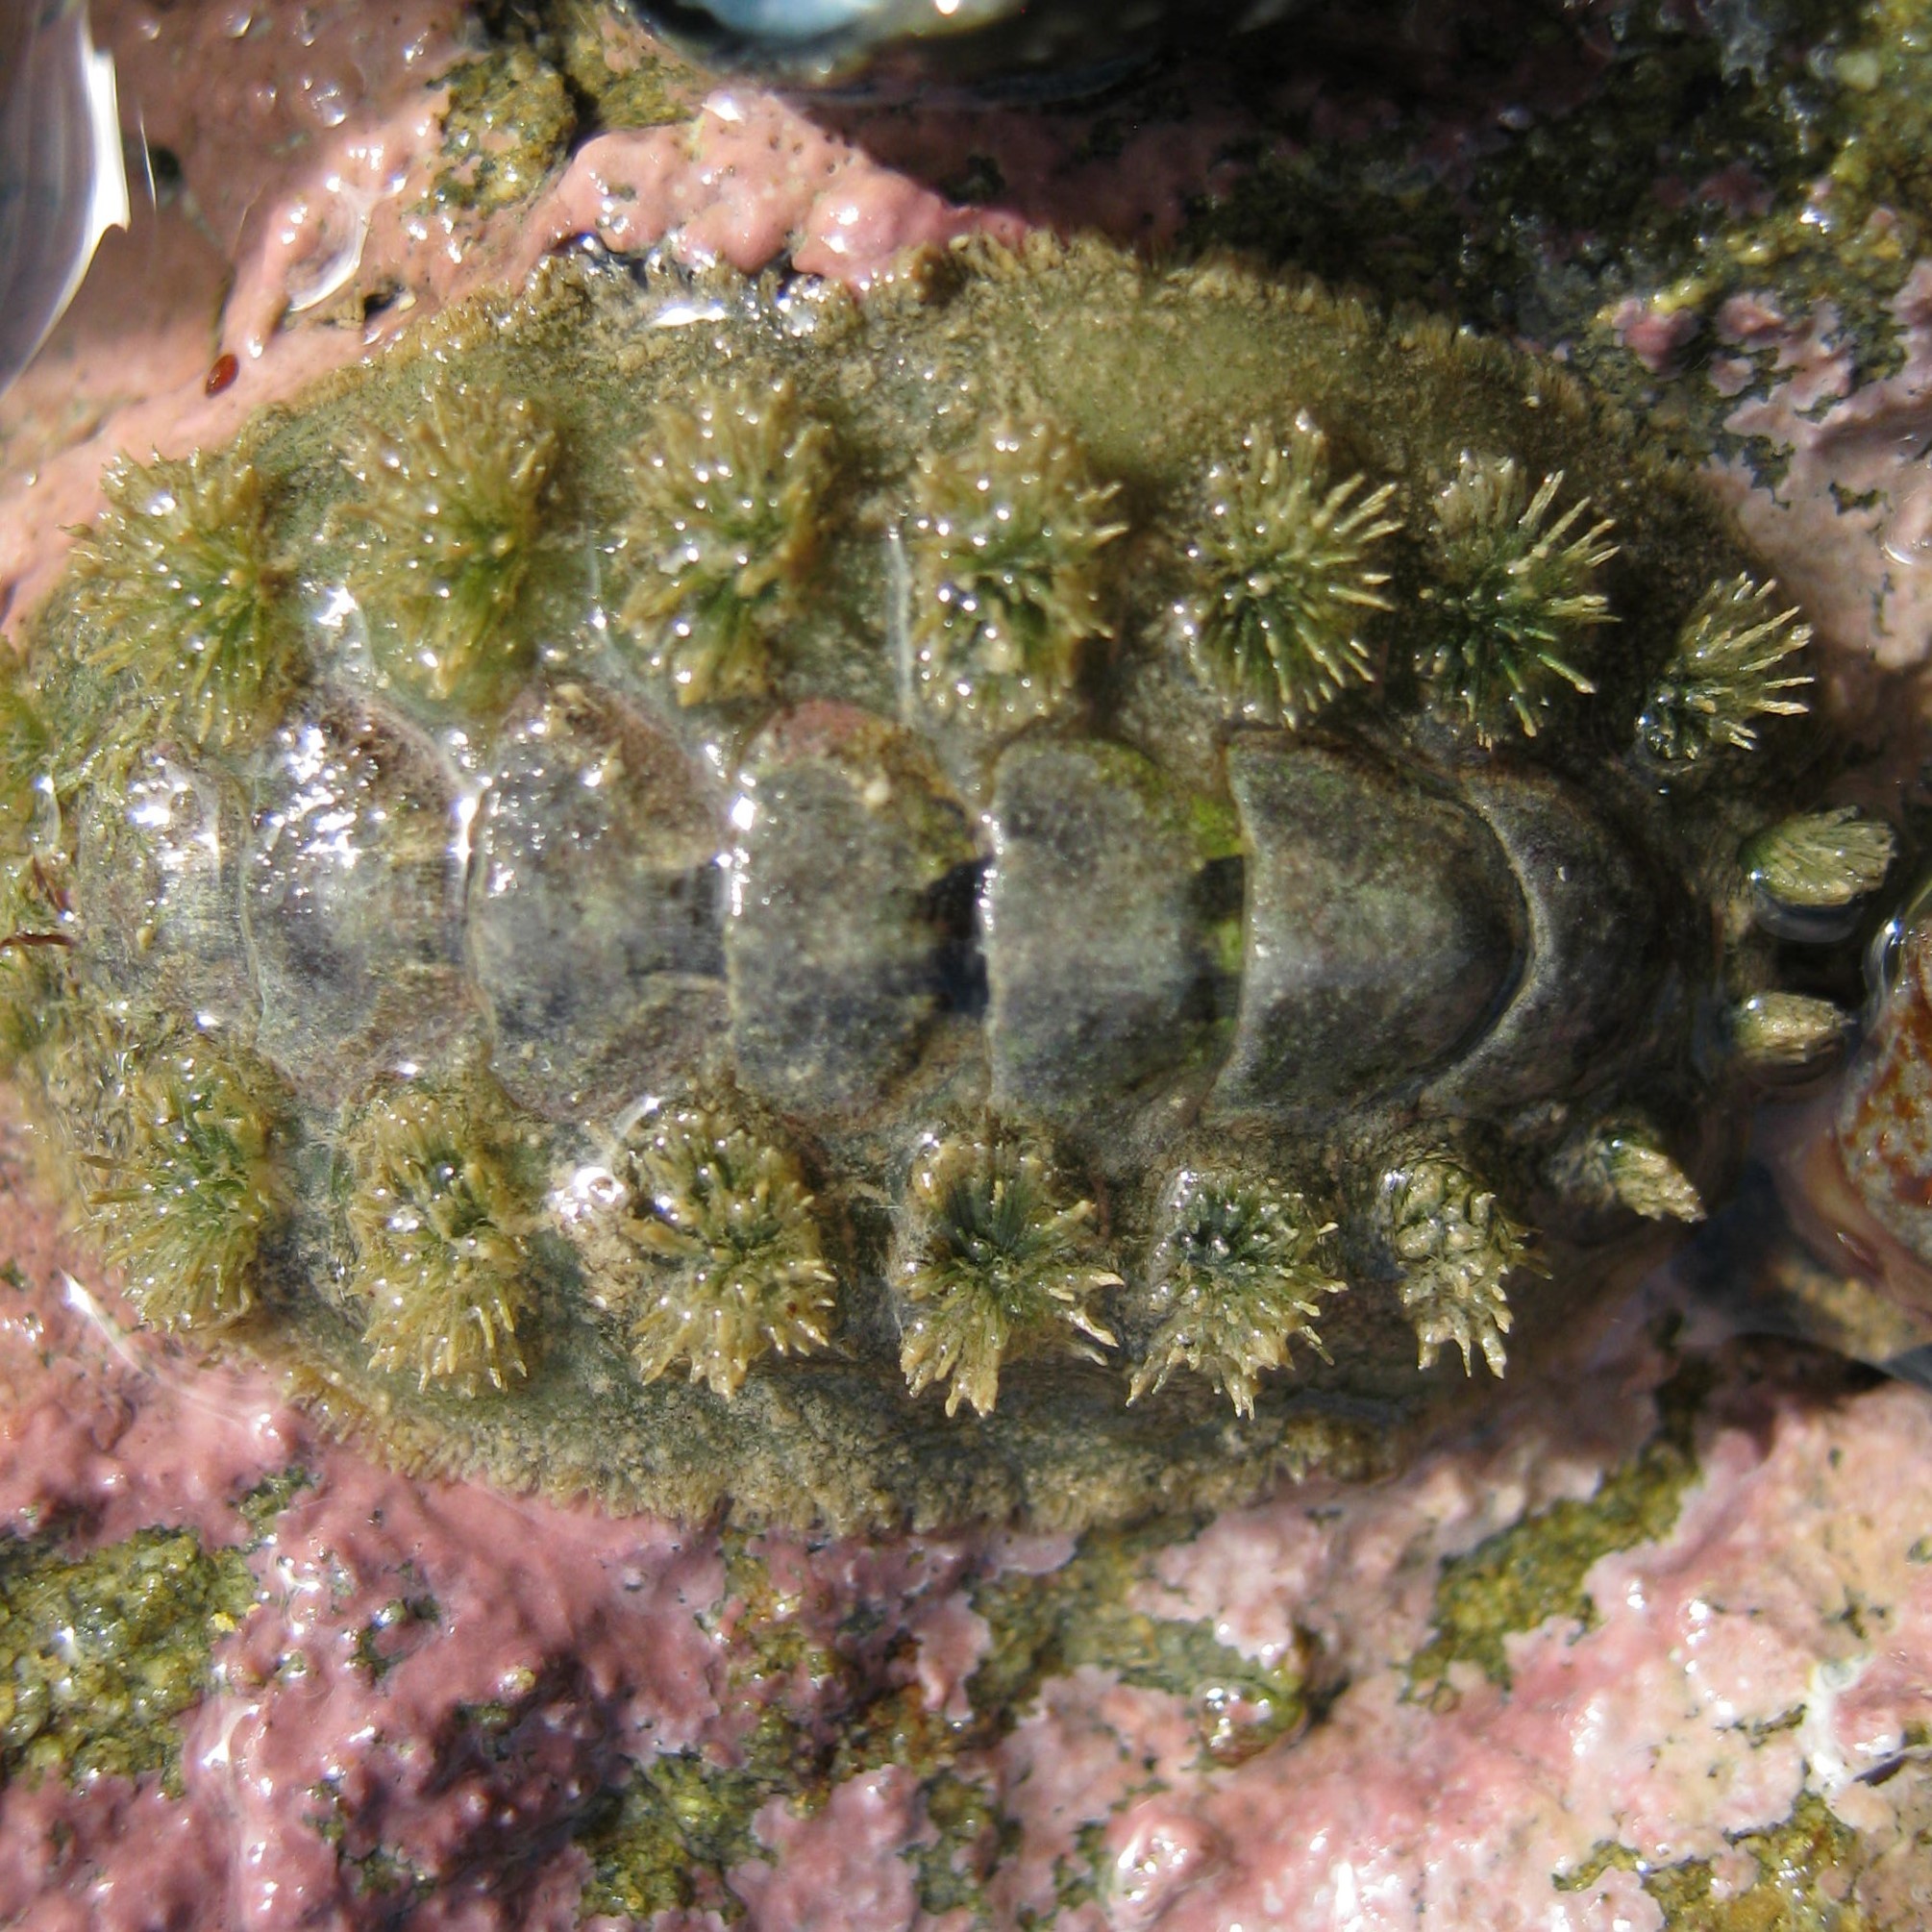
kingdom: Animalia
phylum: Mollusca
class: Polyplacophora
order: Chitonida
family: Acanthochitonidae
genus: Acanthochitona
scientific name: Acanthochitona zelandica
